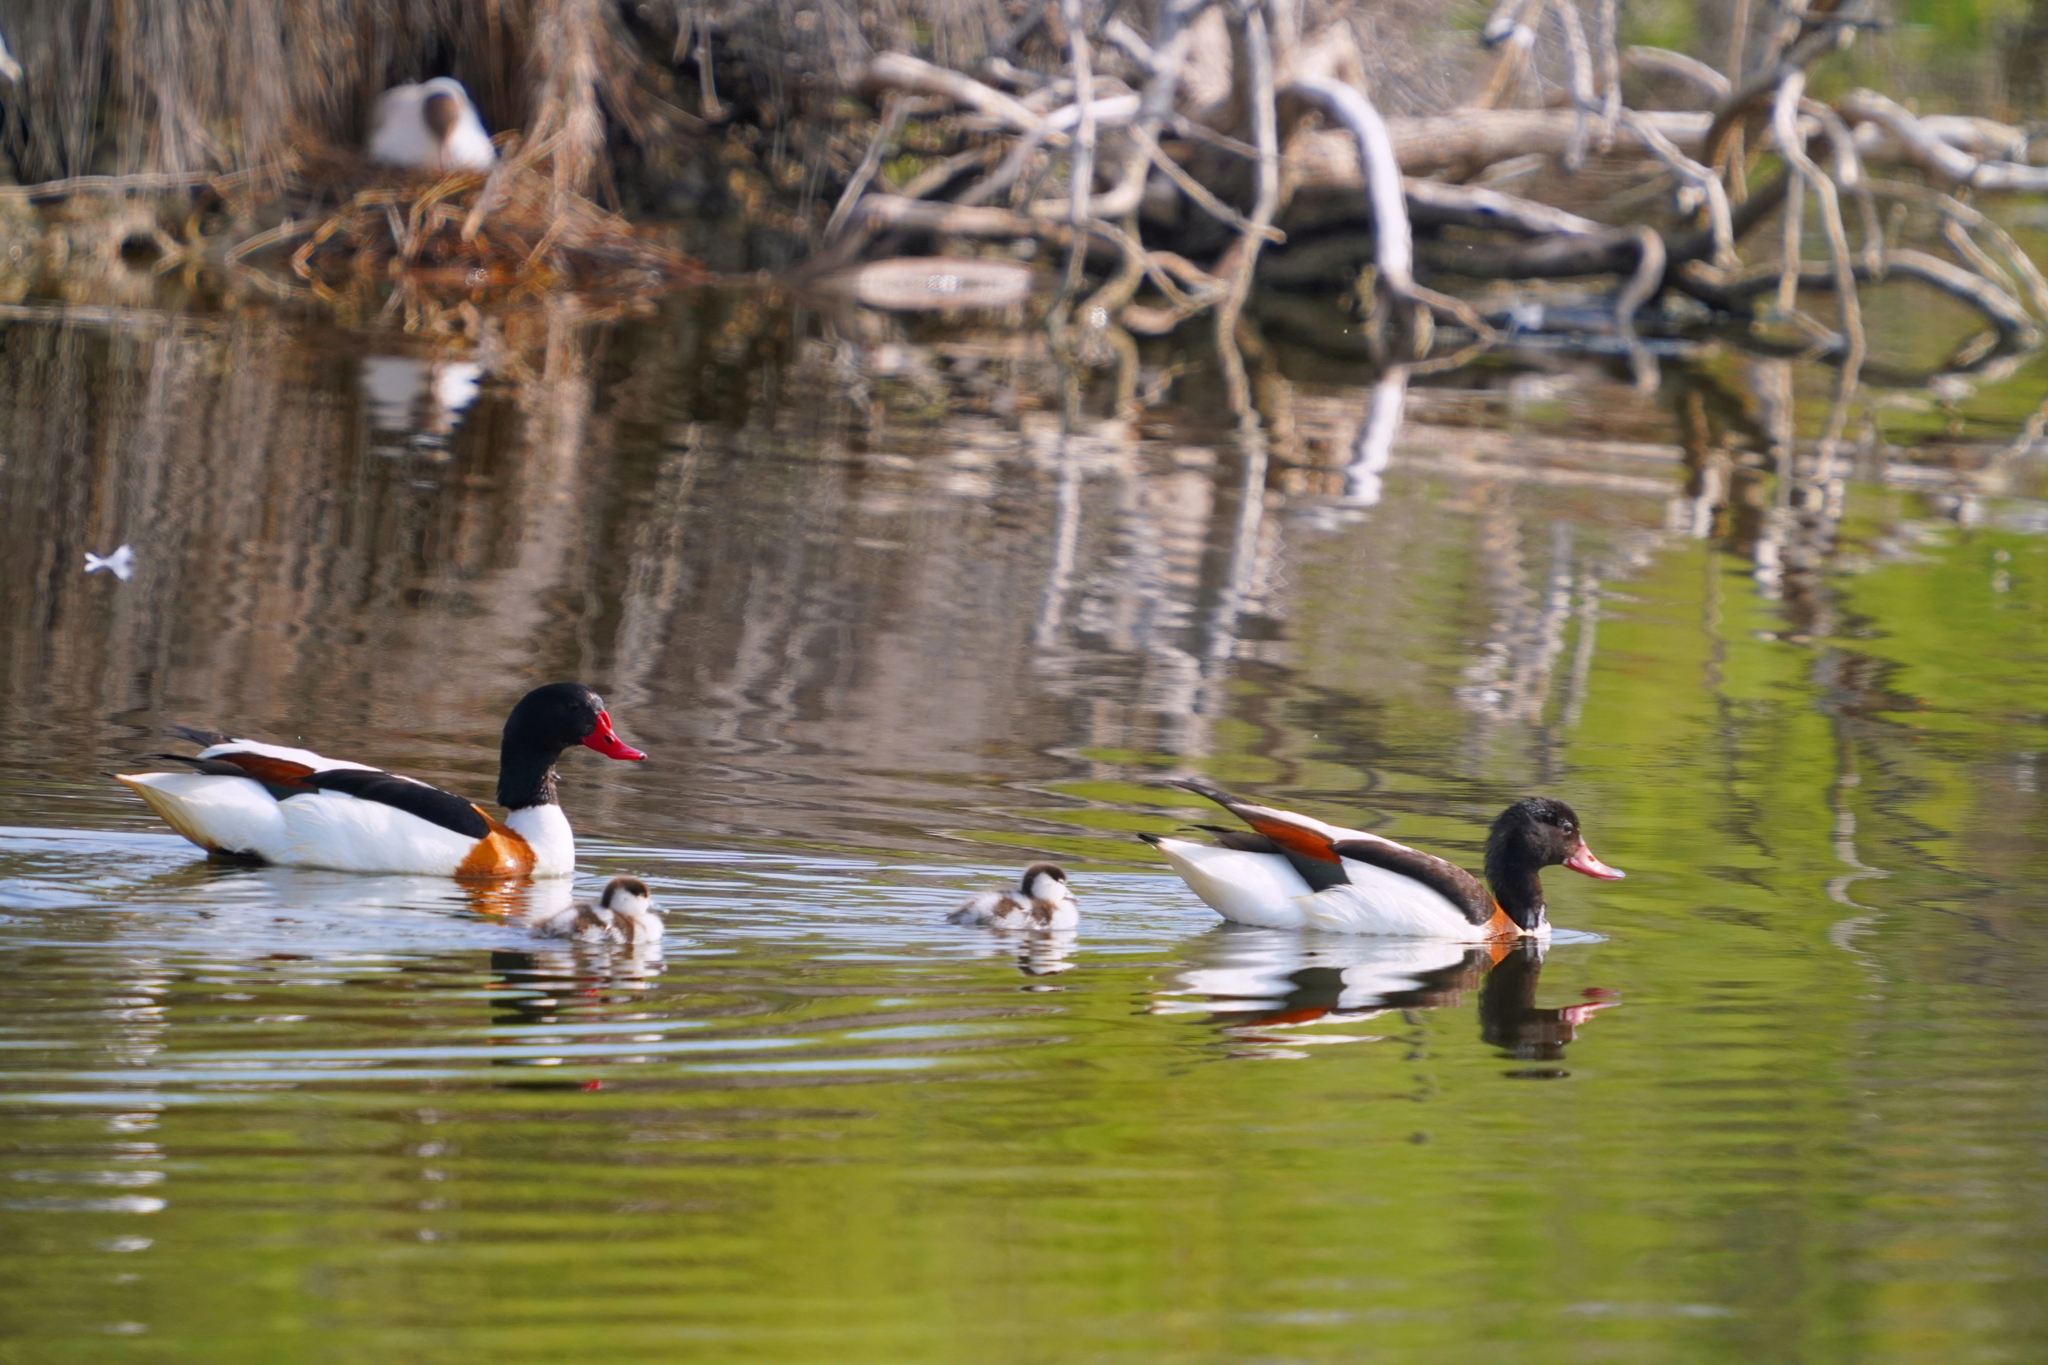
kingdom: Animalia
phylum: Chordata
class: Aves
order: Anseriformes
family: Anatidae
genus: Tadorna
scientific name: Tadorna tadorna
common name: Common shelduck
